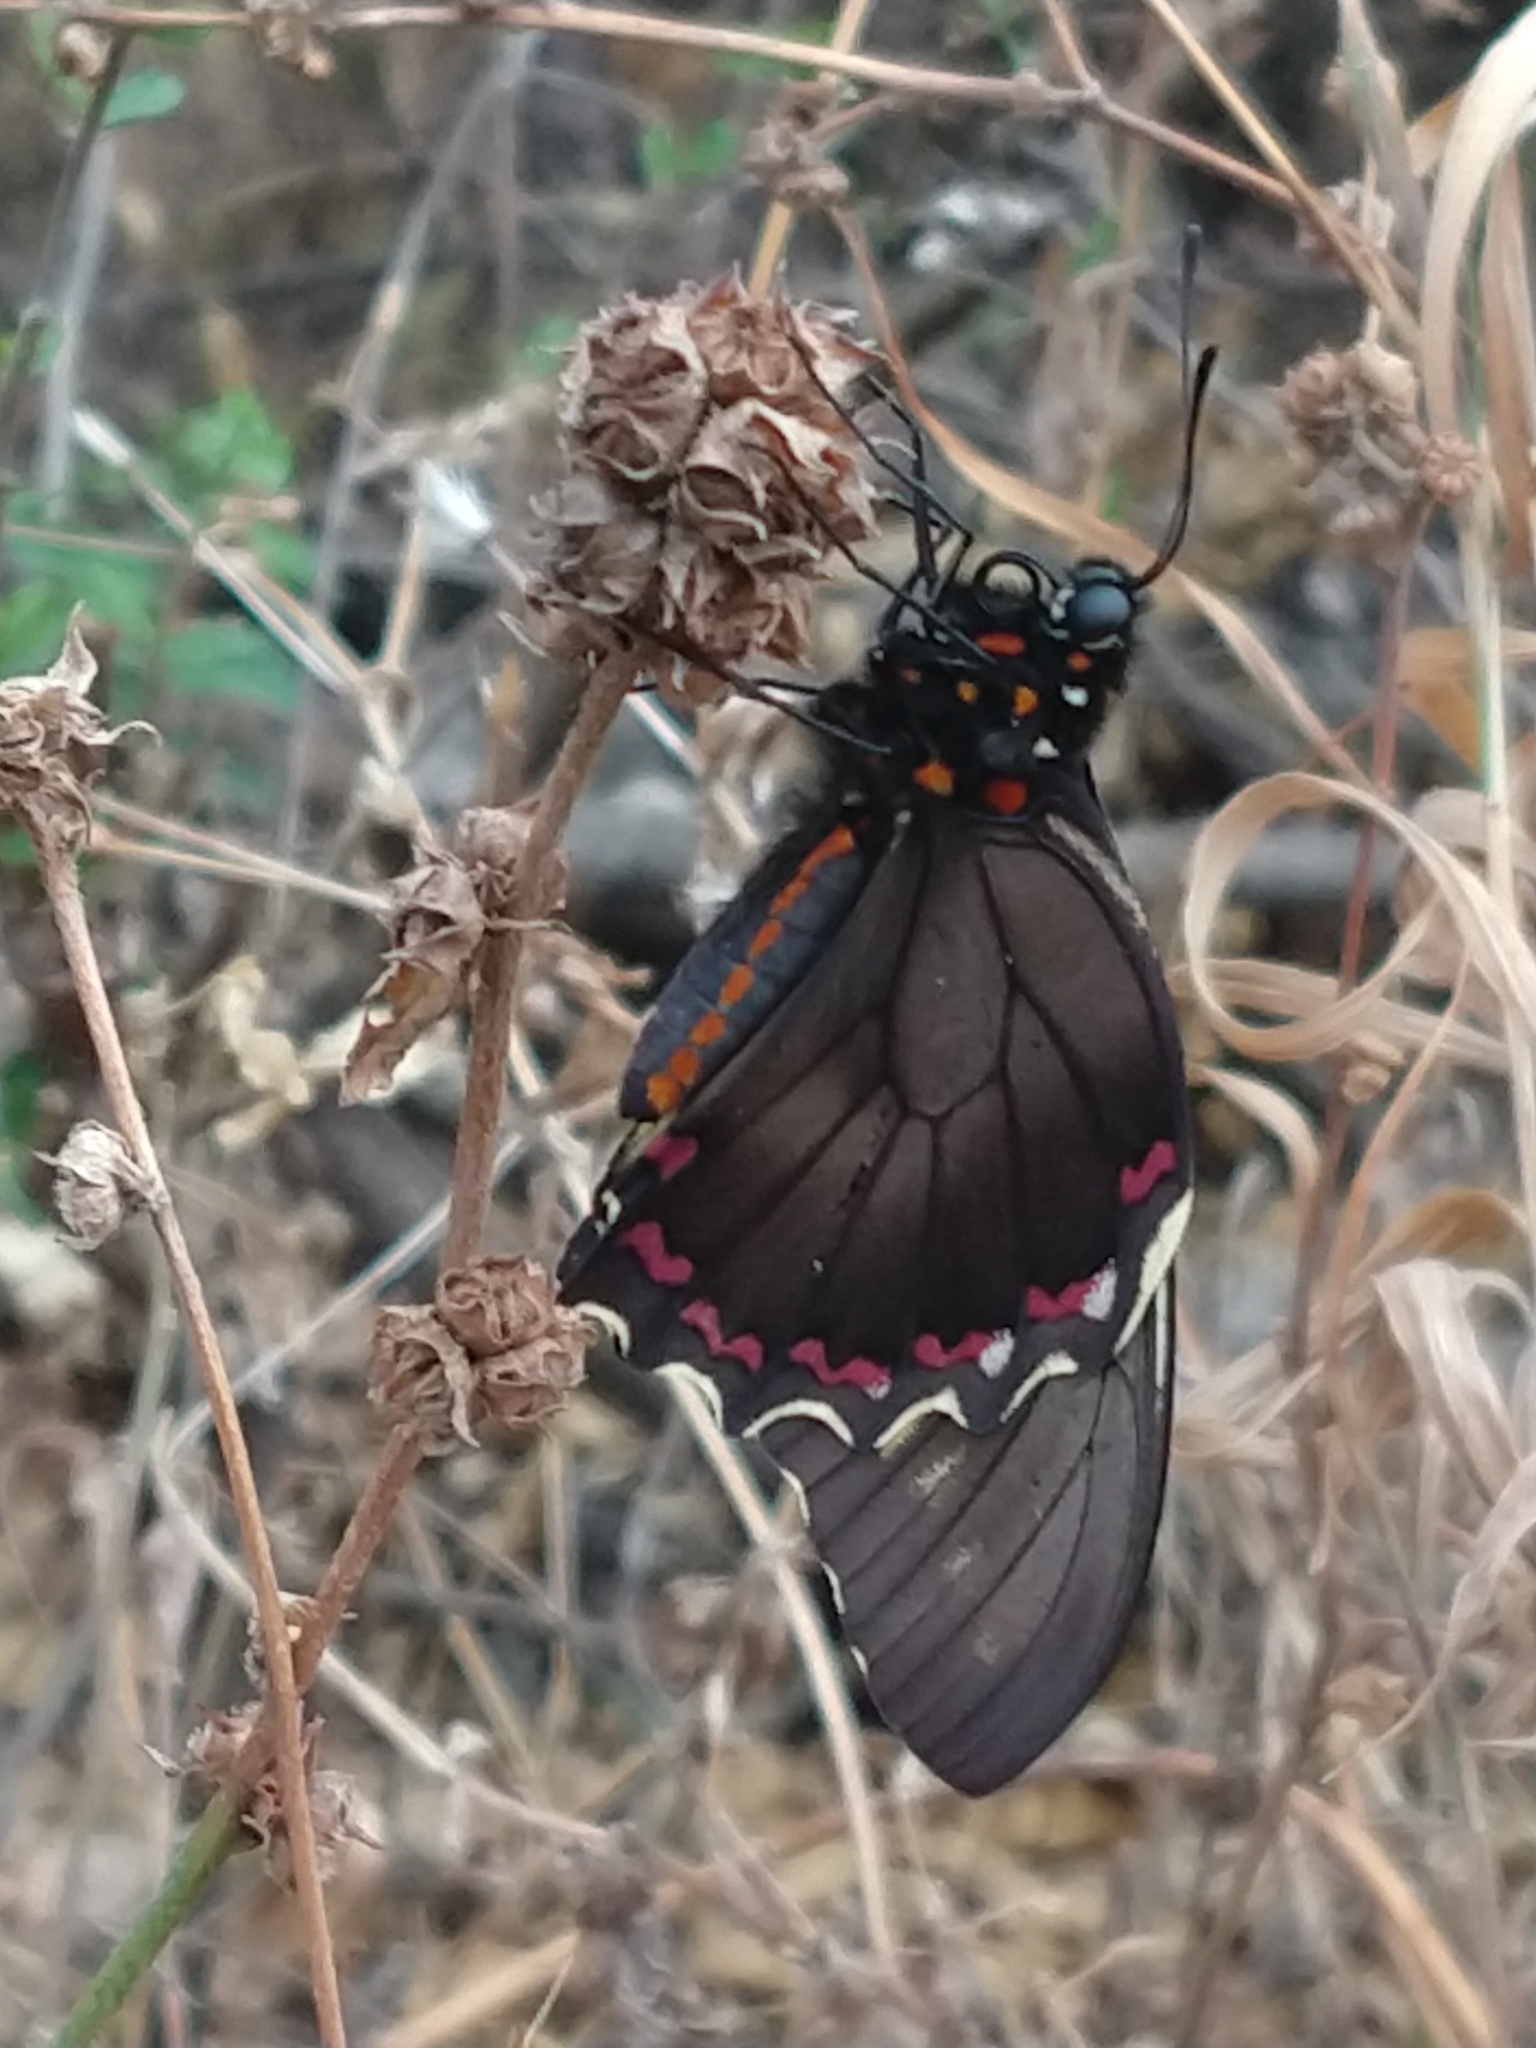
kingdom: Animalia
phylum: Arthropoda
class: Insecta
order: Lepidoptera
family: Papilionidae
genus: Battus
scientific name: Battus polydamas
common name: Polydamas swallowtail
